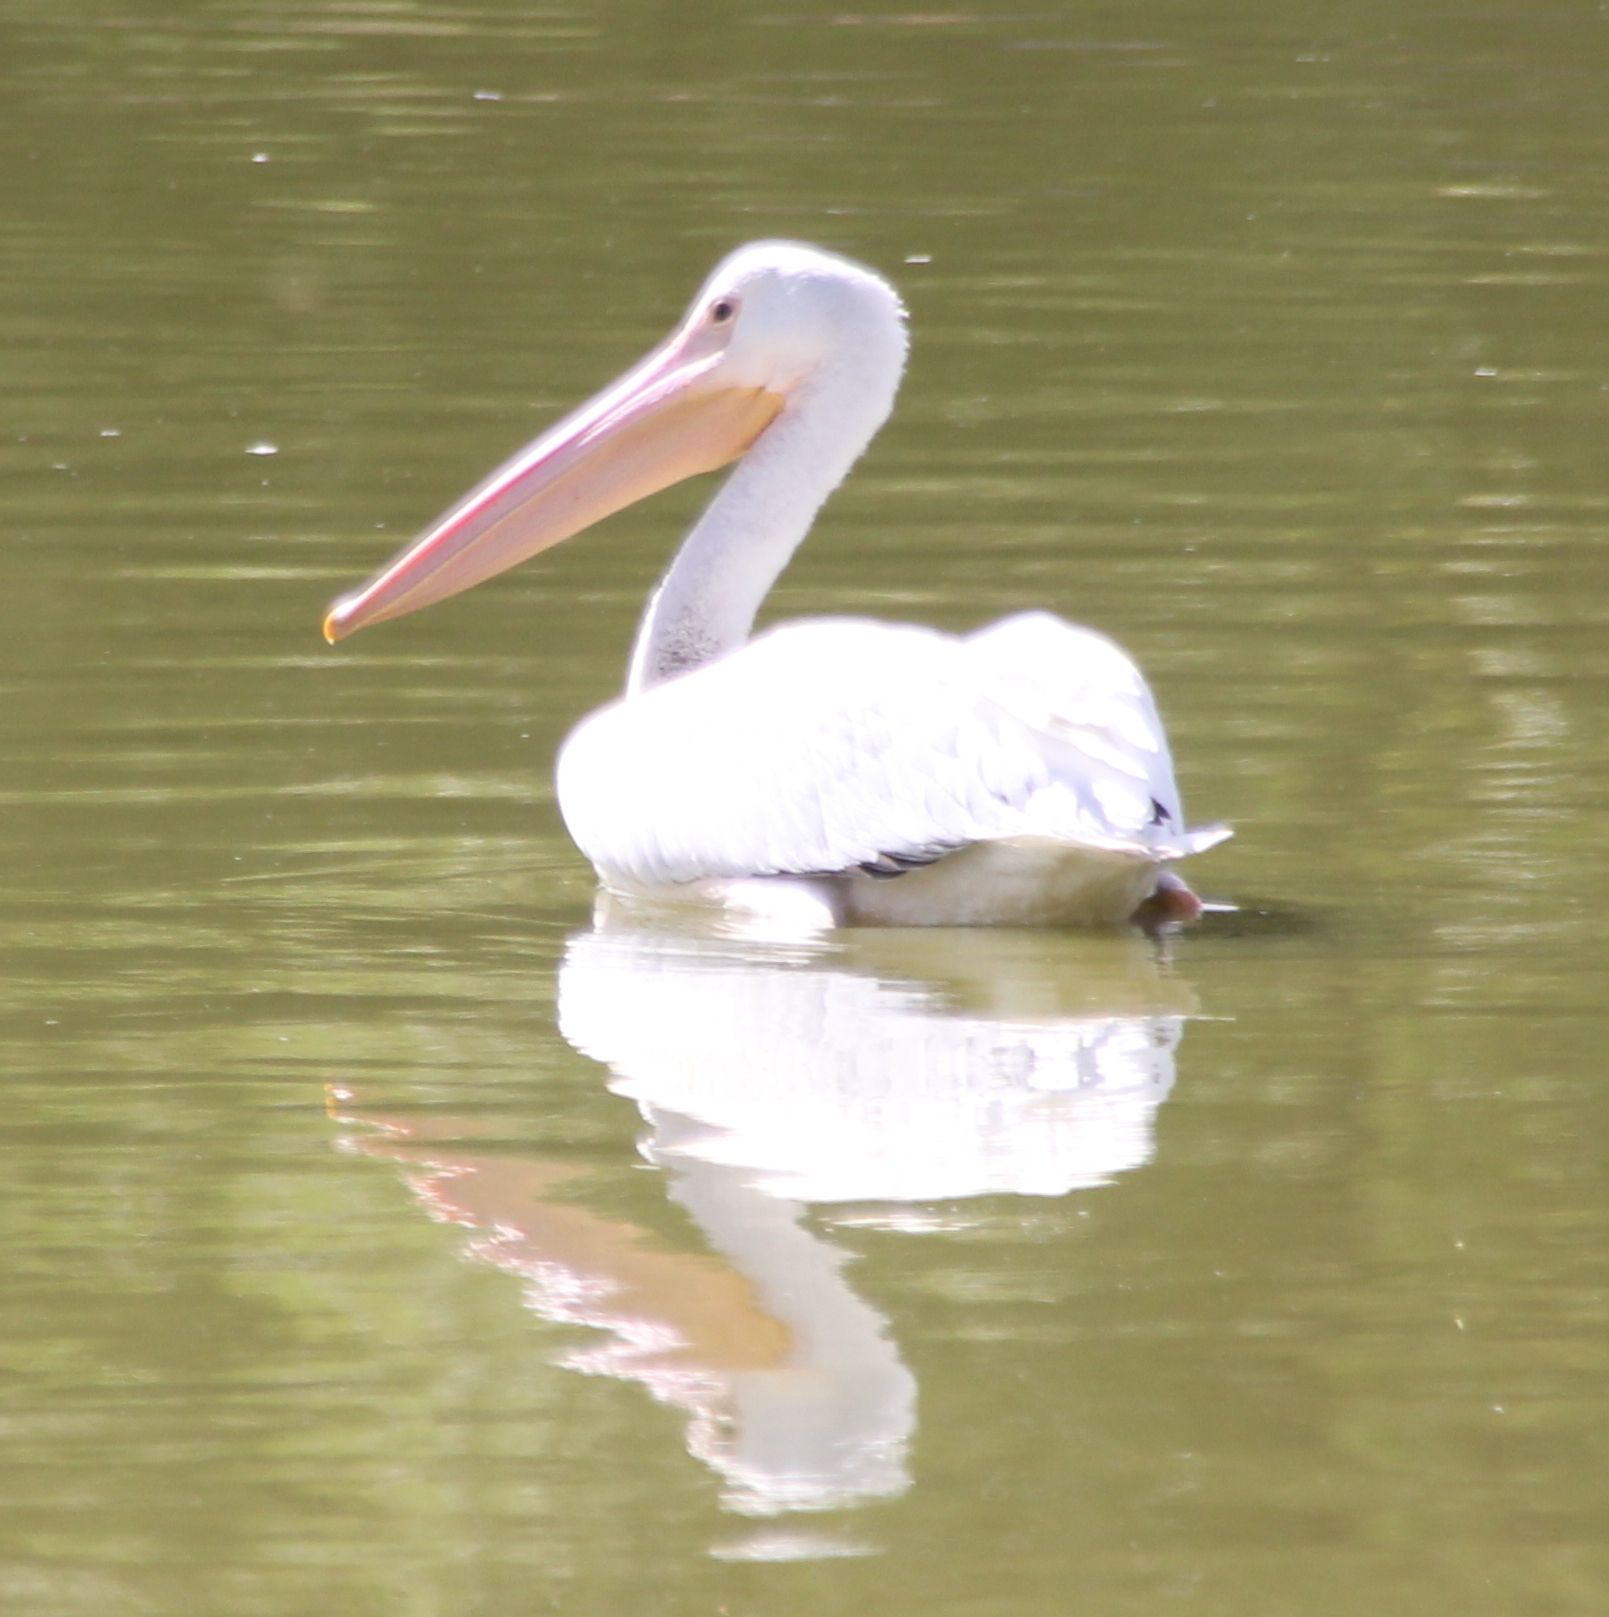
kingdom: Animalia
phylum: Chordata
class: Aves
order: Pelecaniformes
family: Pelecanidae
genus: Pelecanus
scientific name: Pelecanus erythrorhynchos
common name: American white pelican
